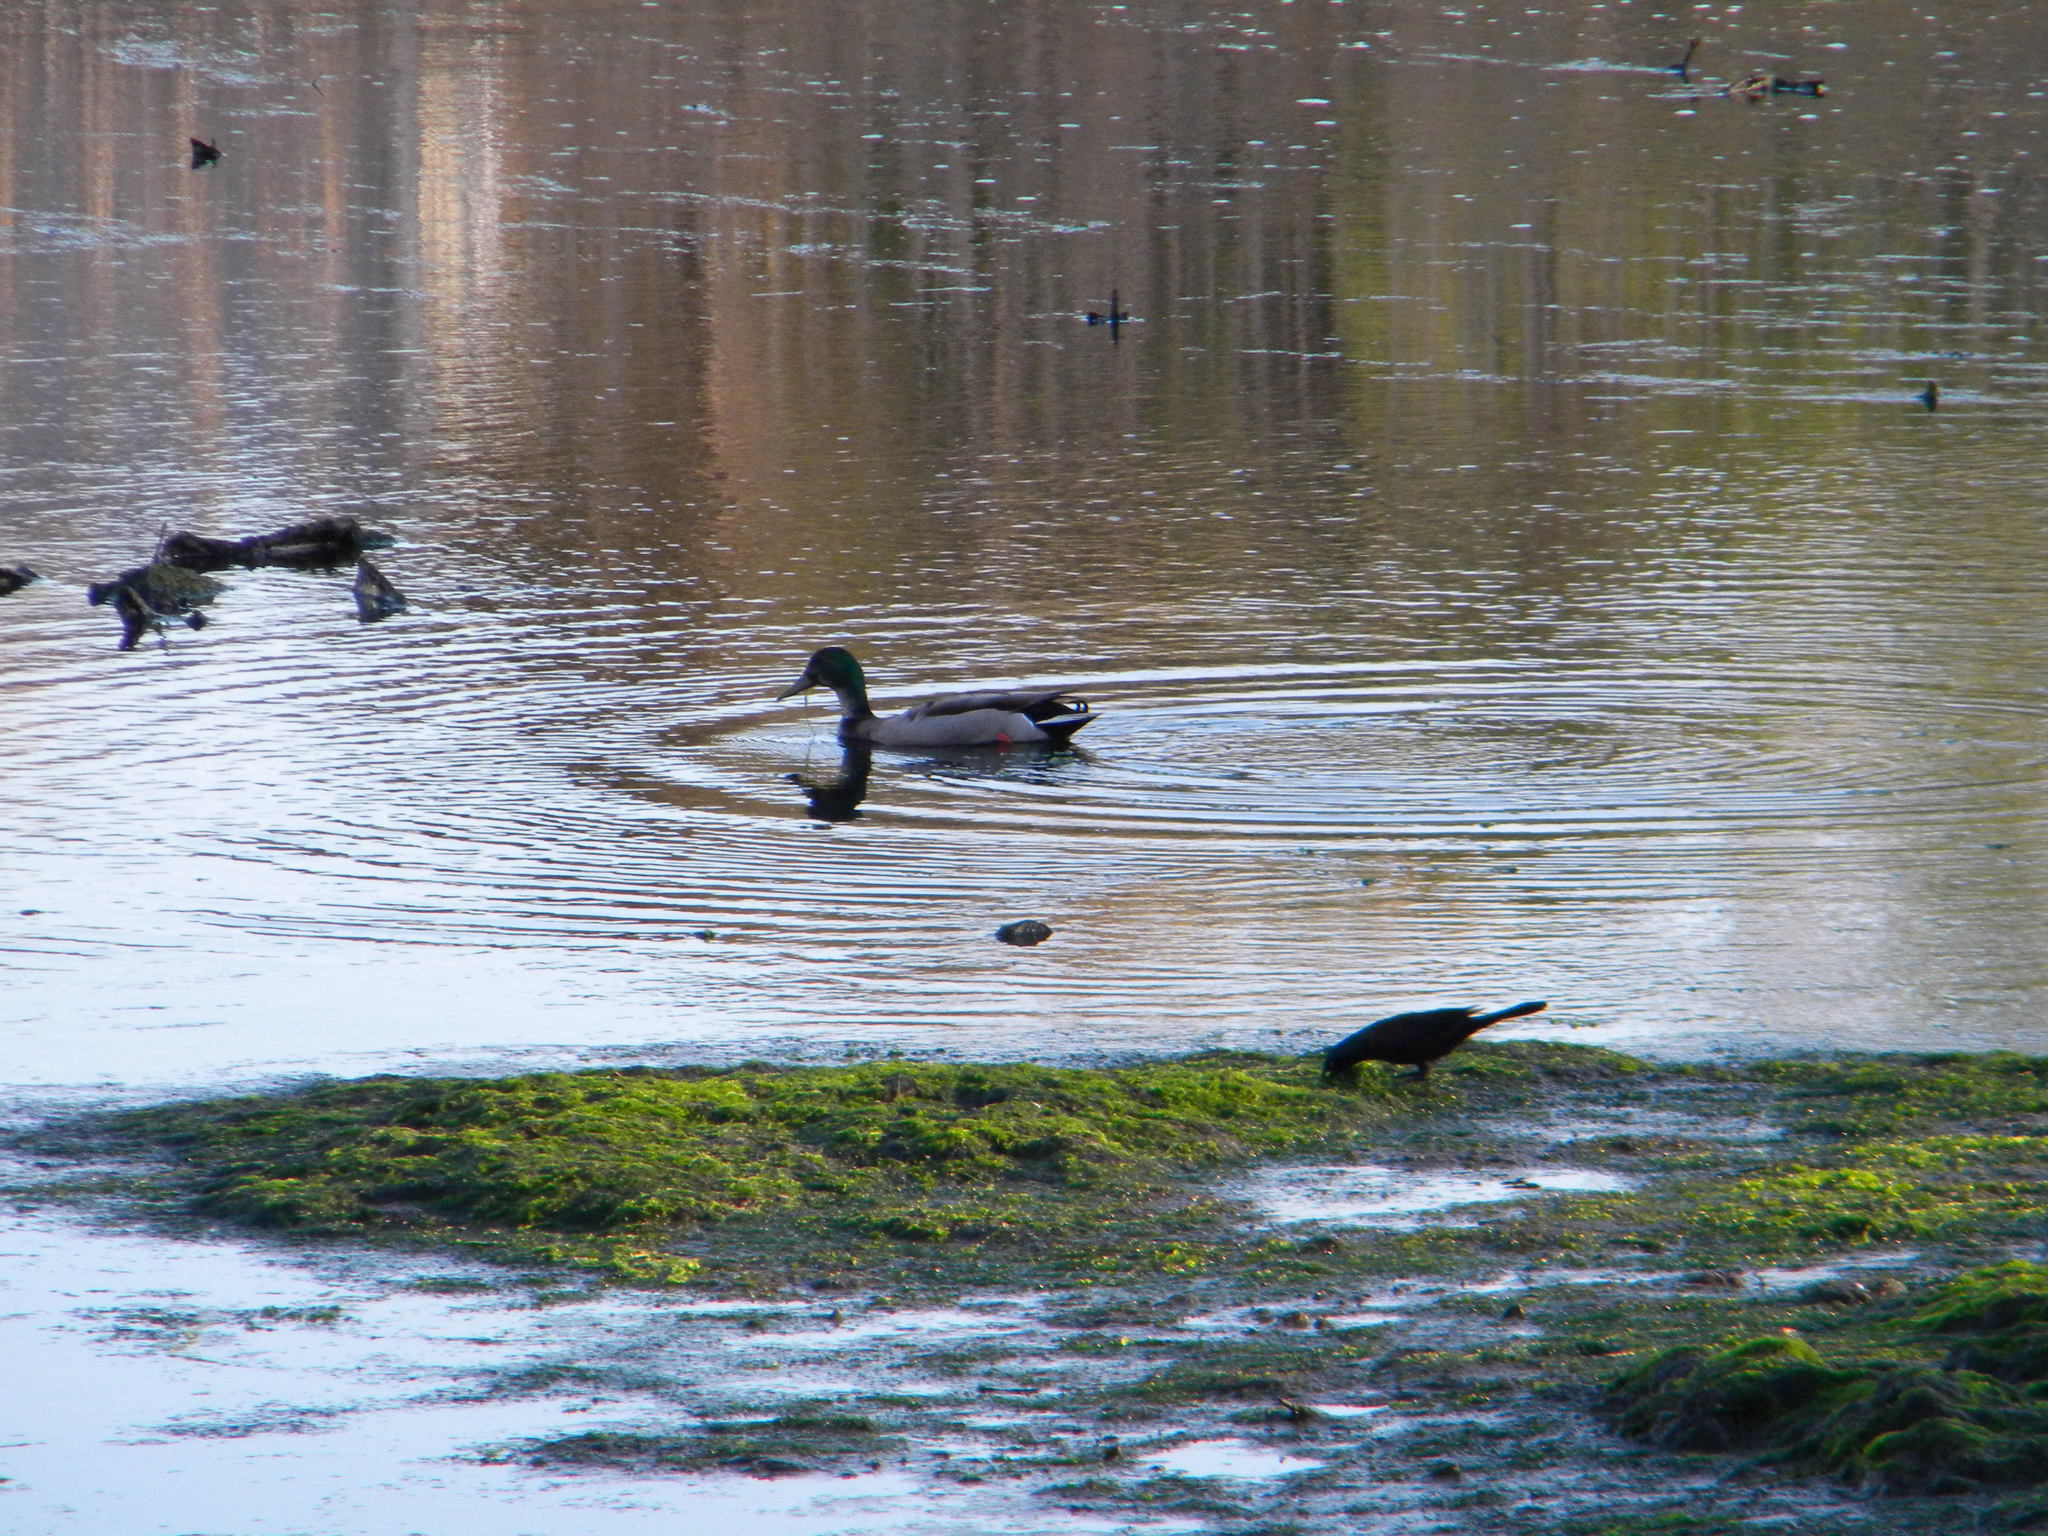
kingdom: Animalia
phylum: Chordata
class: Aves
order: Anseriformes
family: Anatidae
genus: Anas
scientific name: Anas platyrhynchos
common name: Mallard
